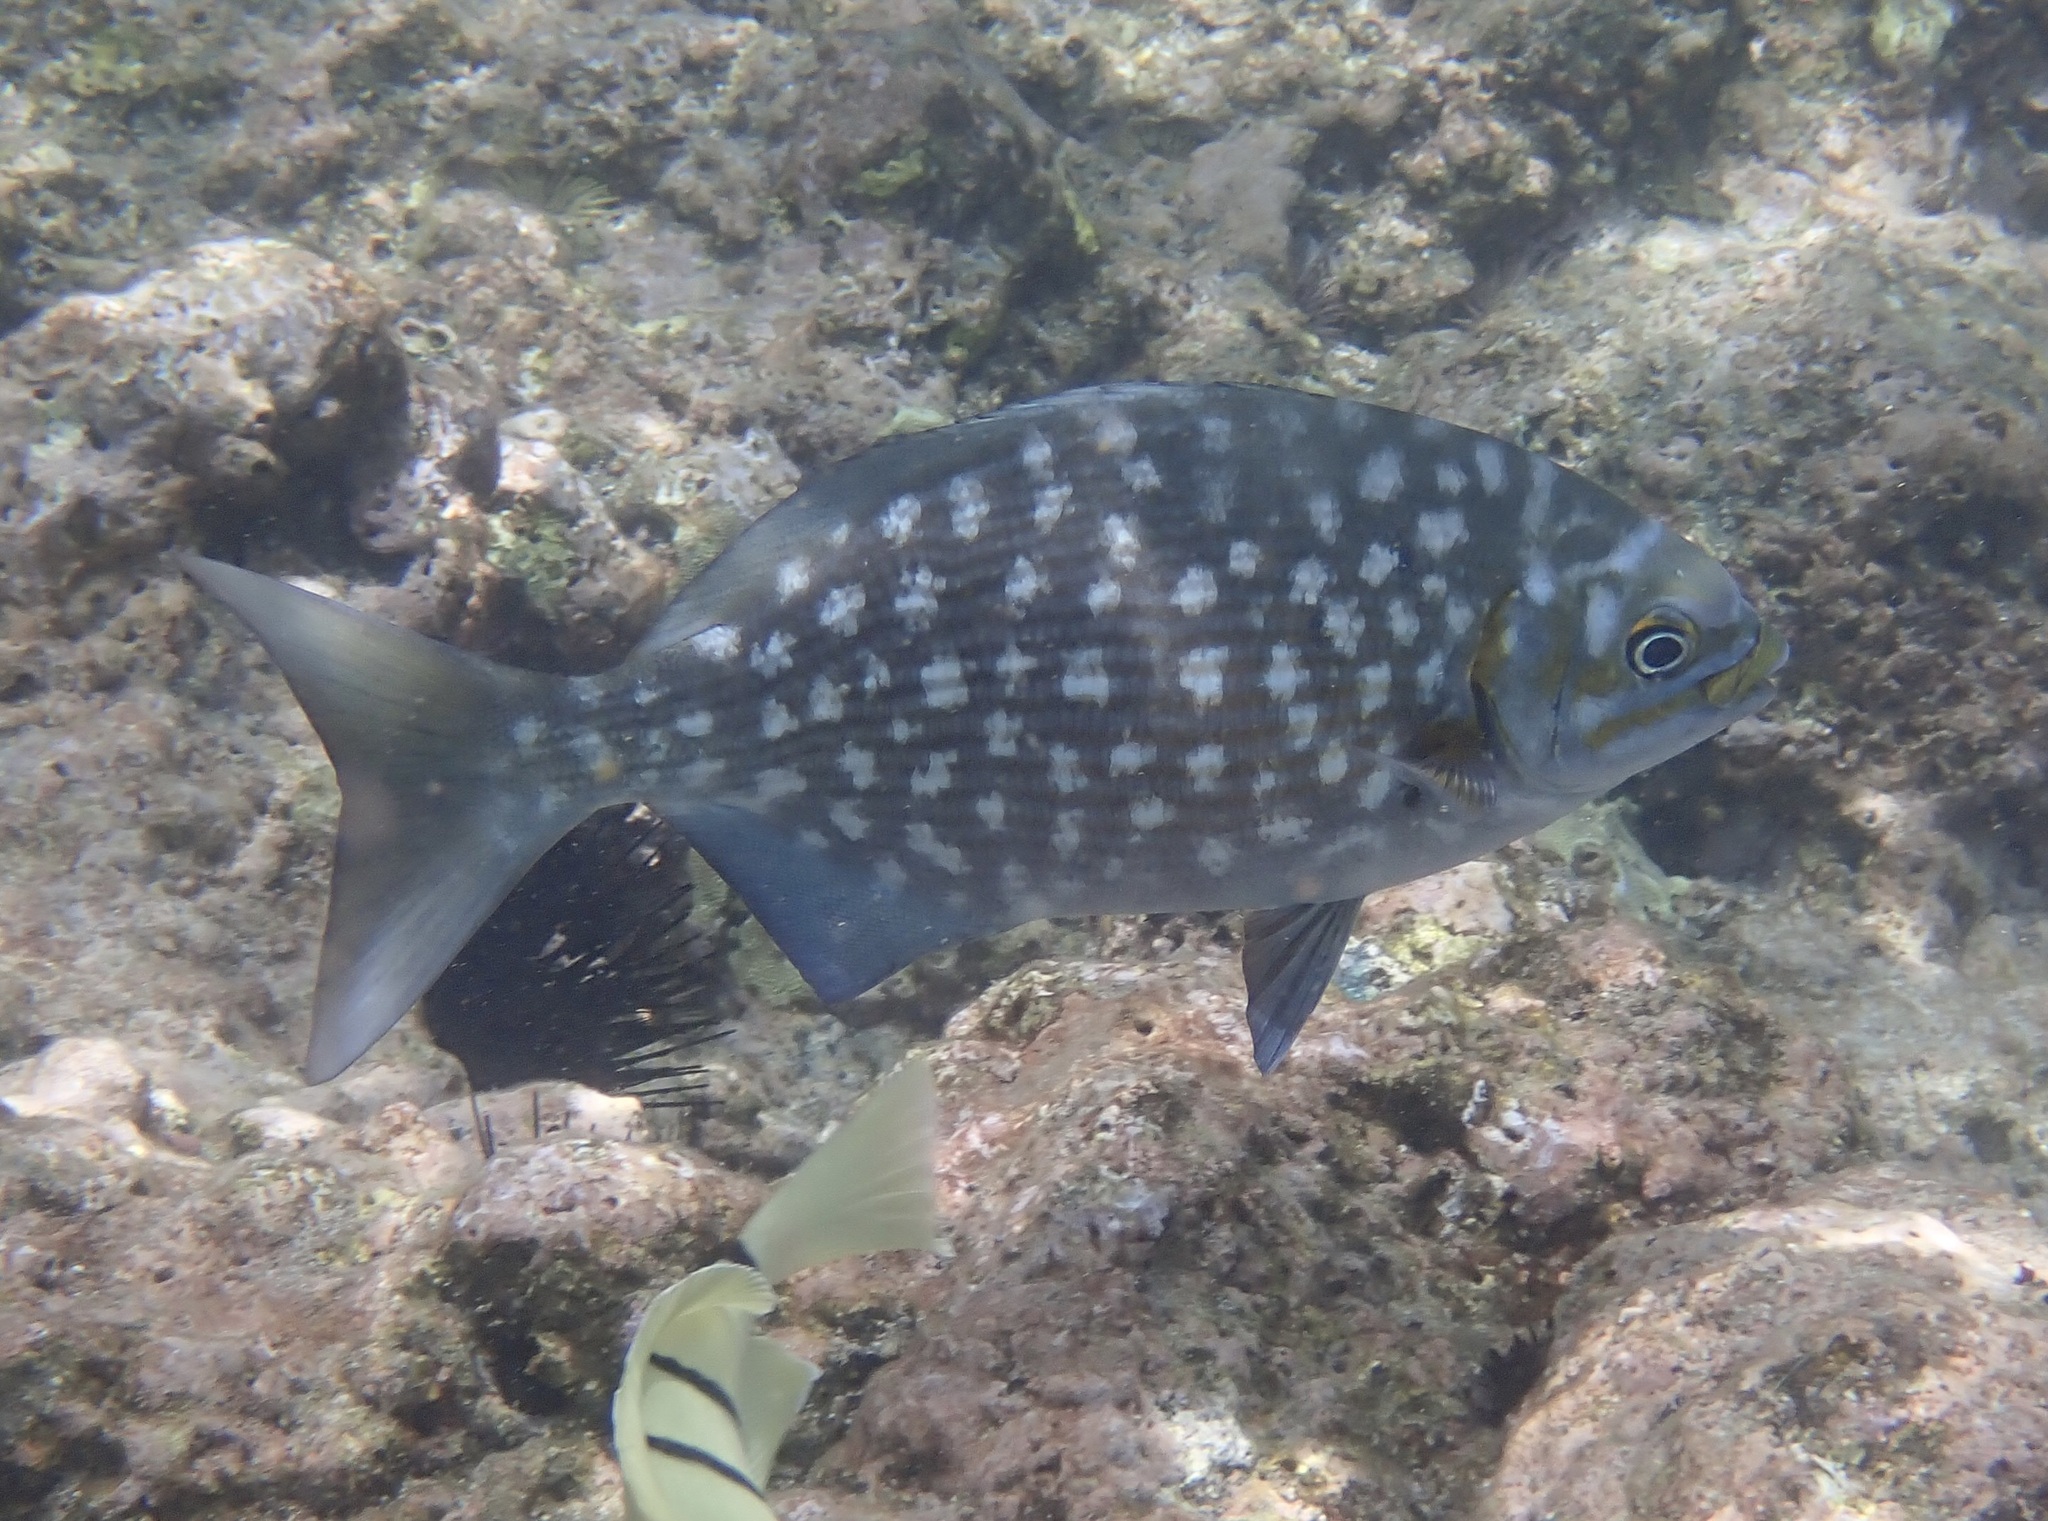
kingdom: Animalia
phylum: Chordata
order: Perciformes
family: Kyphosidae
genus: Kyphosus
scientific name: Kyphosus vaigiensis
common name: Brassy chub
